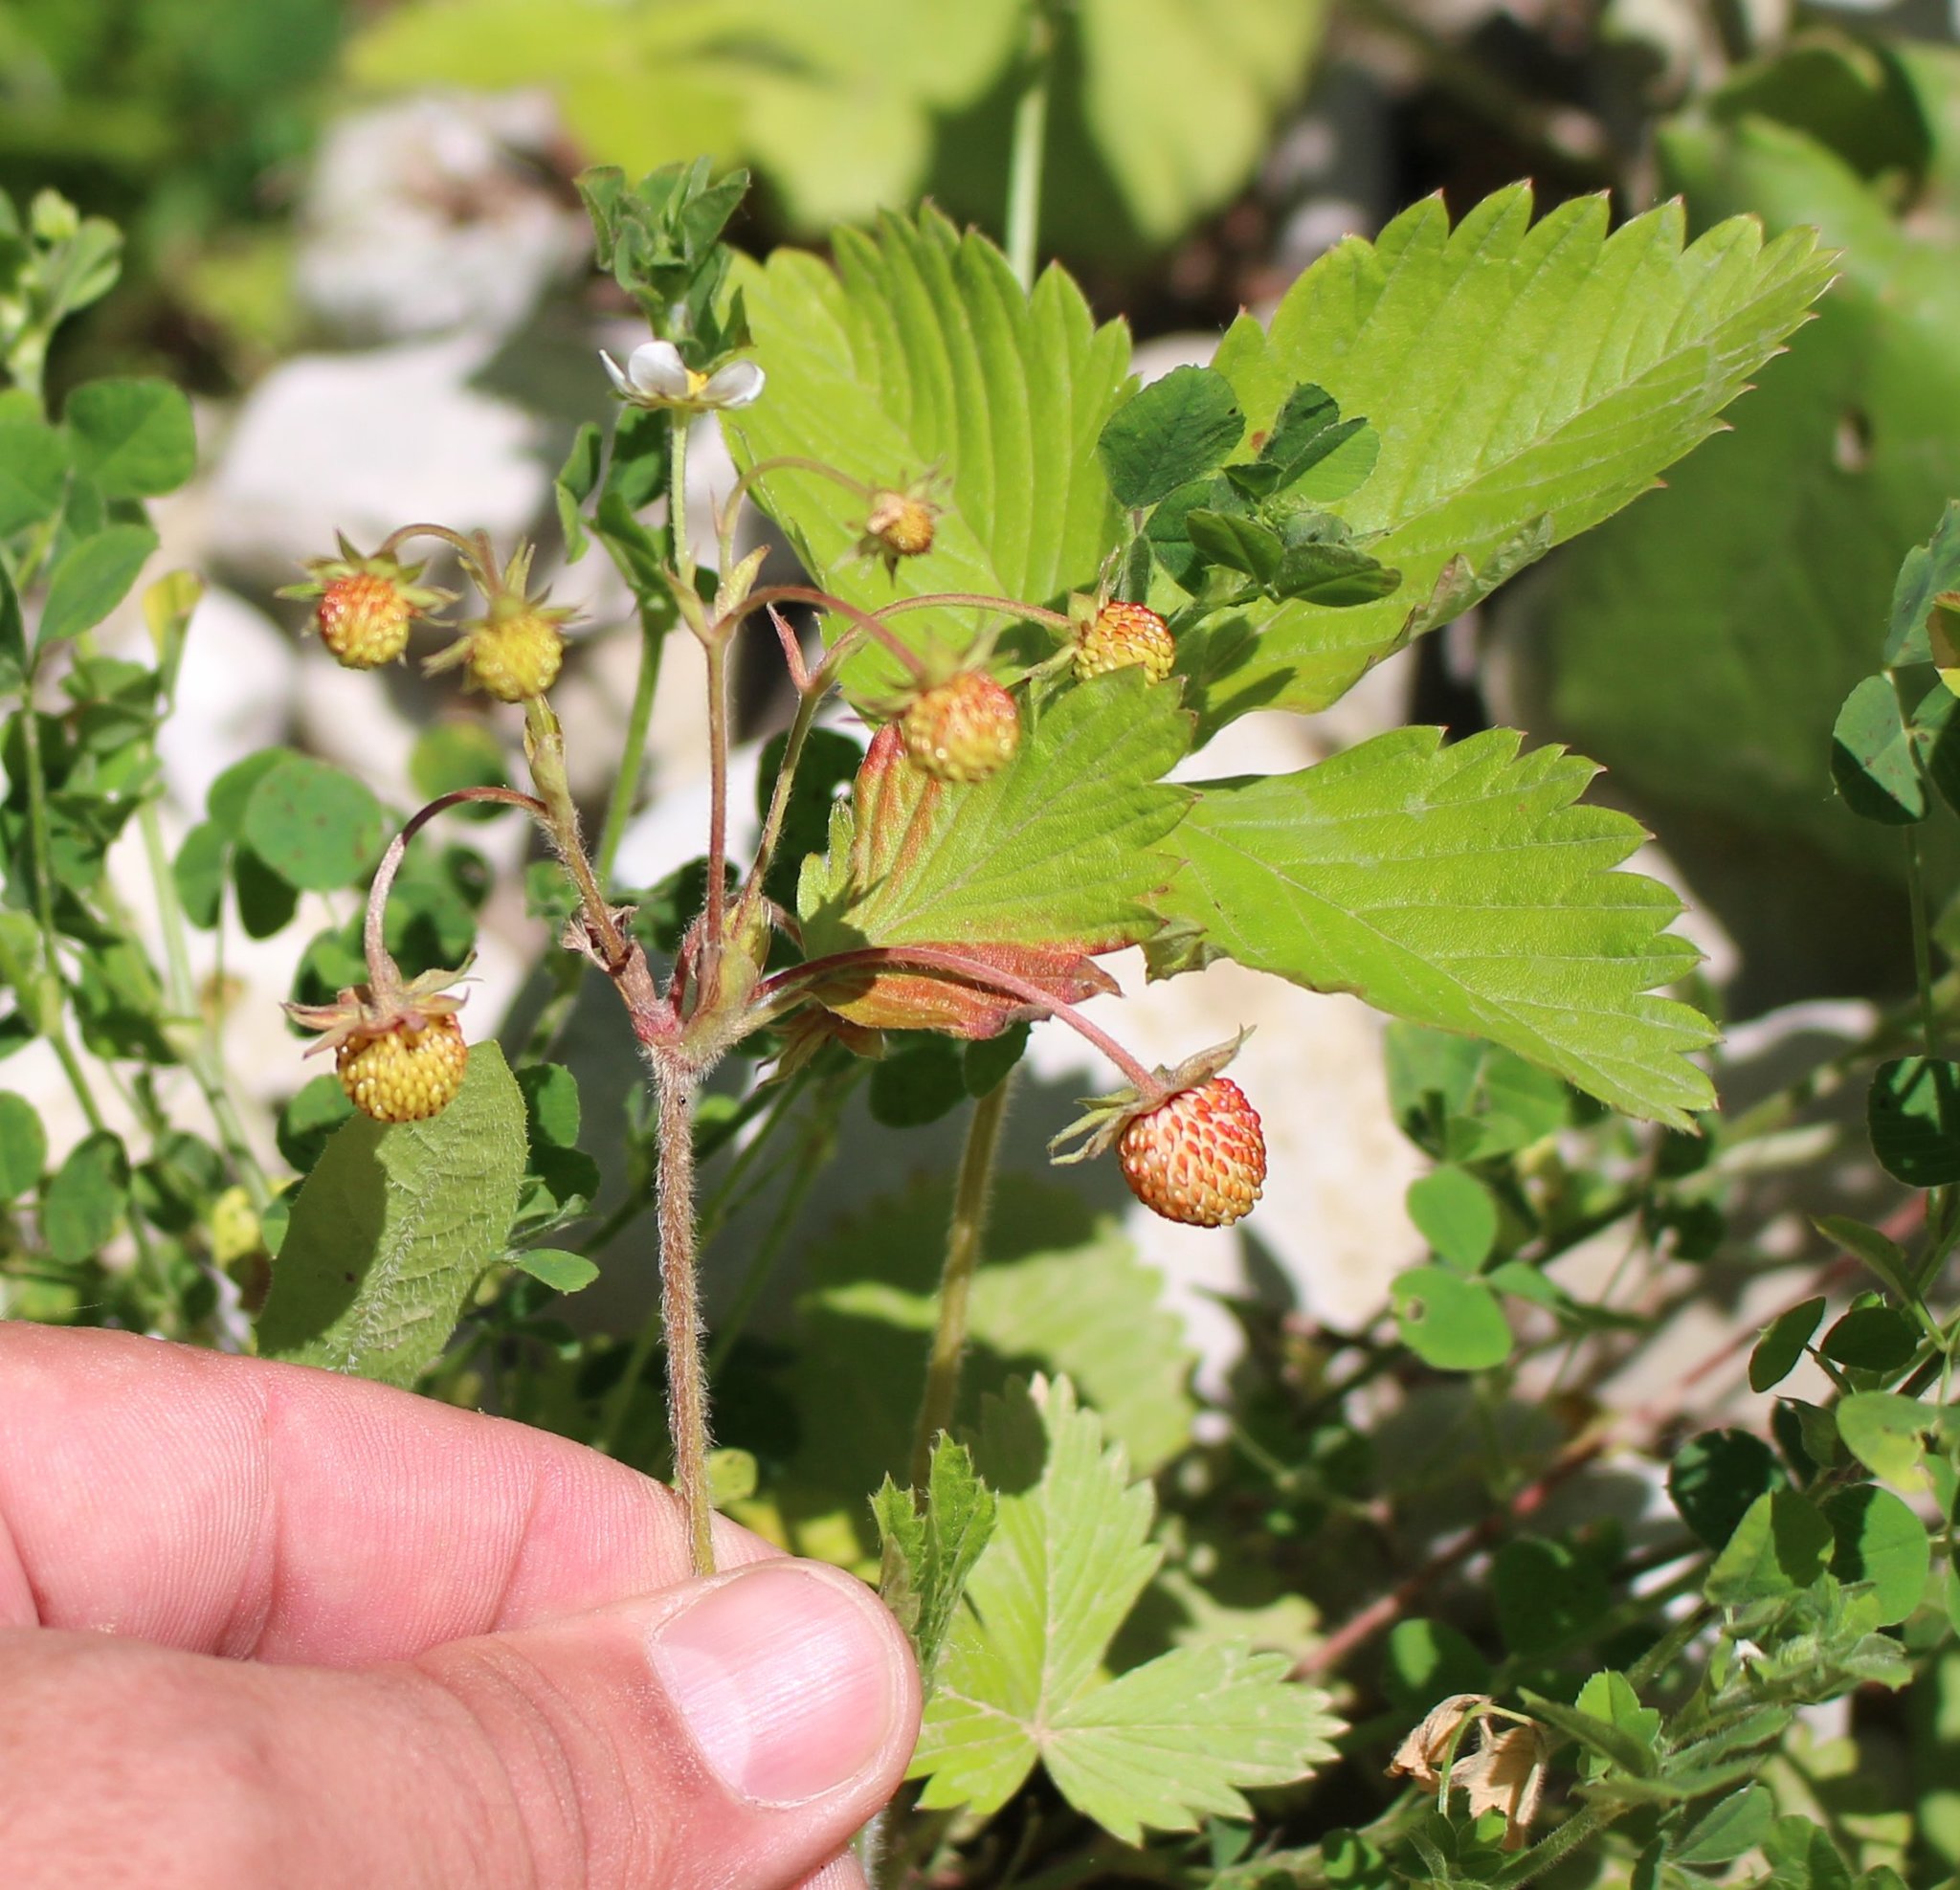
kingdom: Plantae
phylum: Tracheophyta
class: Magnoliopsida
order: Rosales
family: Rosaceae
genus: Fragaria
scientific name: Fragaria vesca
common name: Wild strawberry
